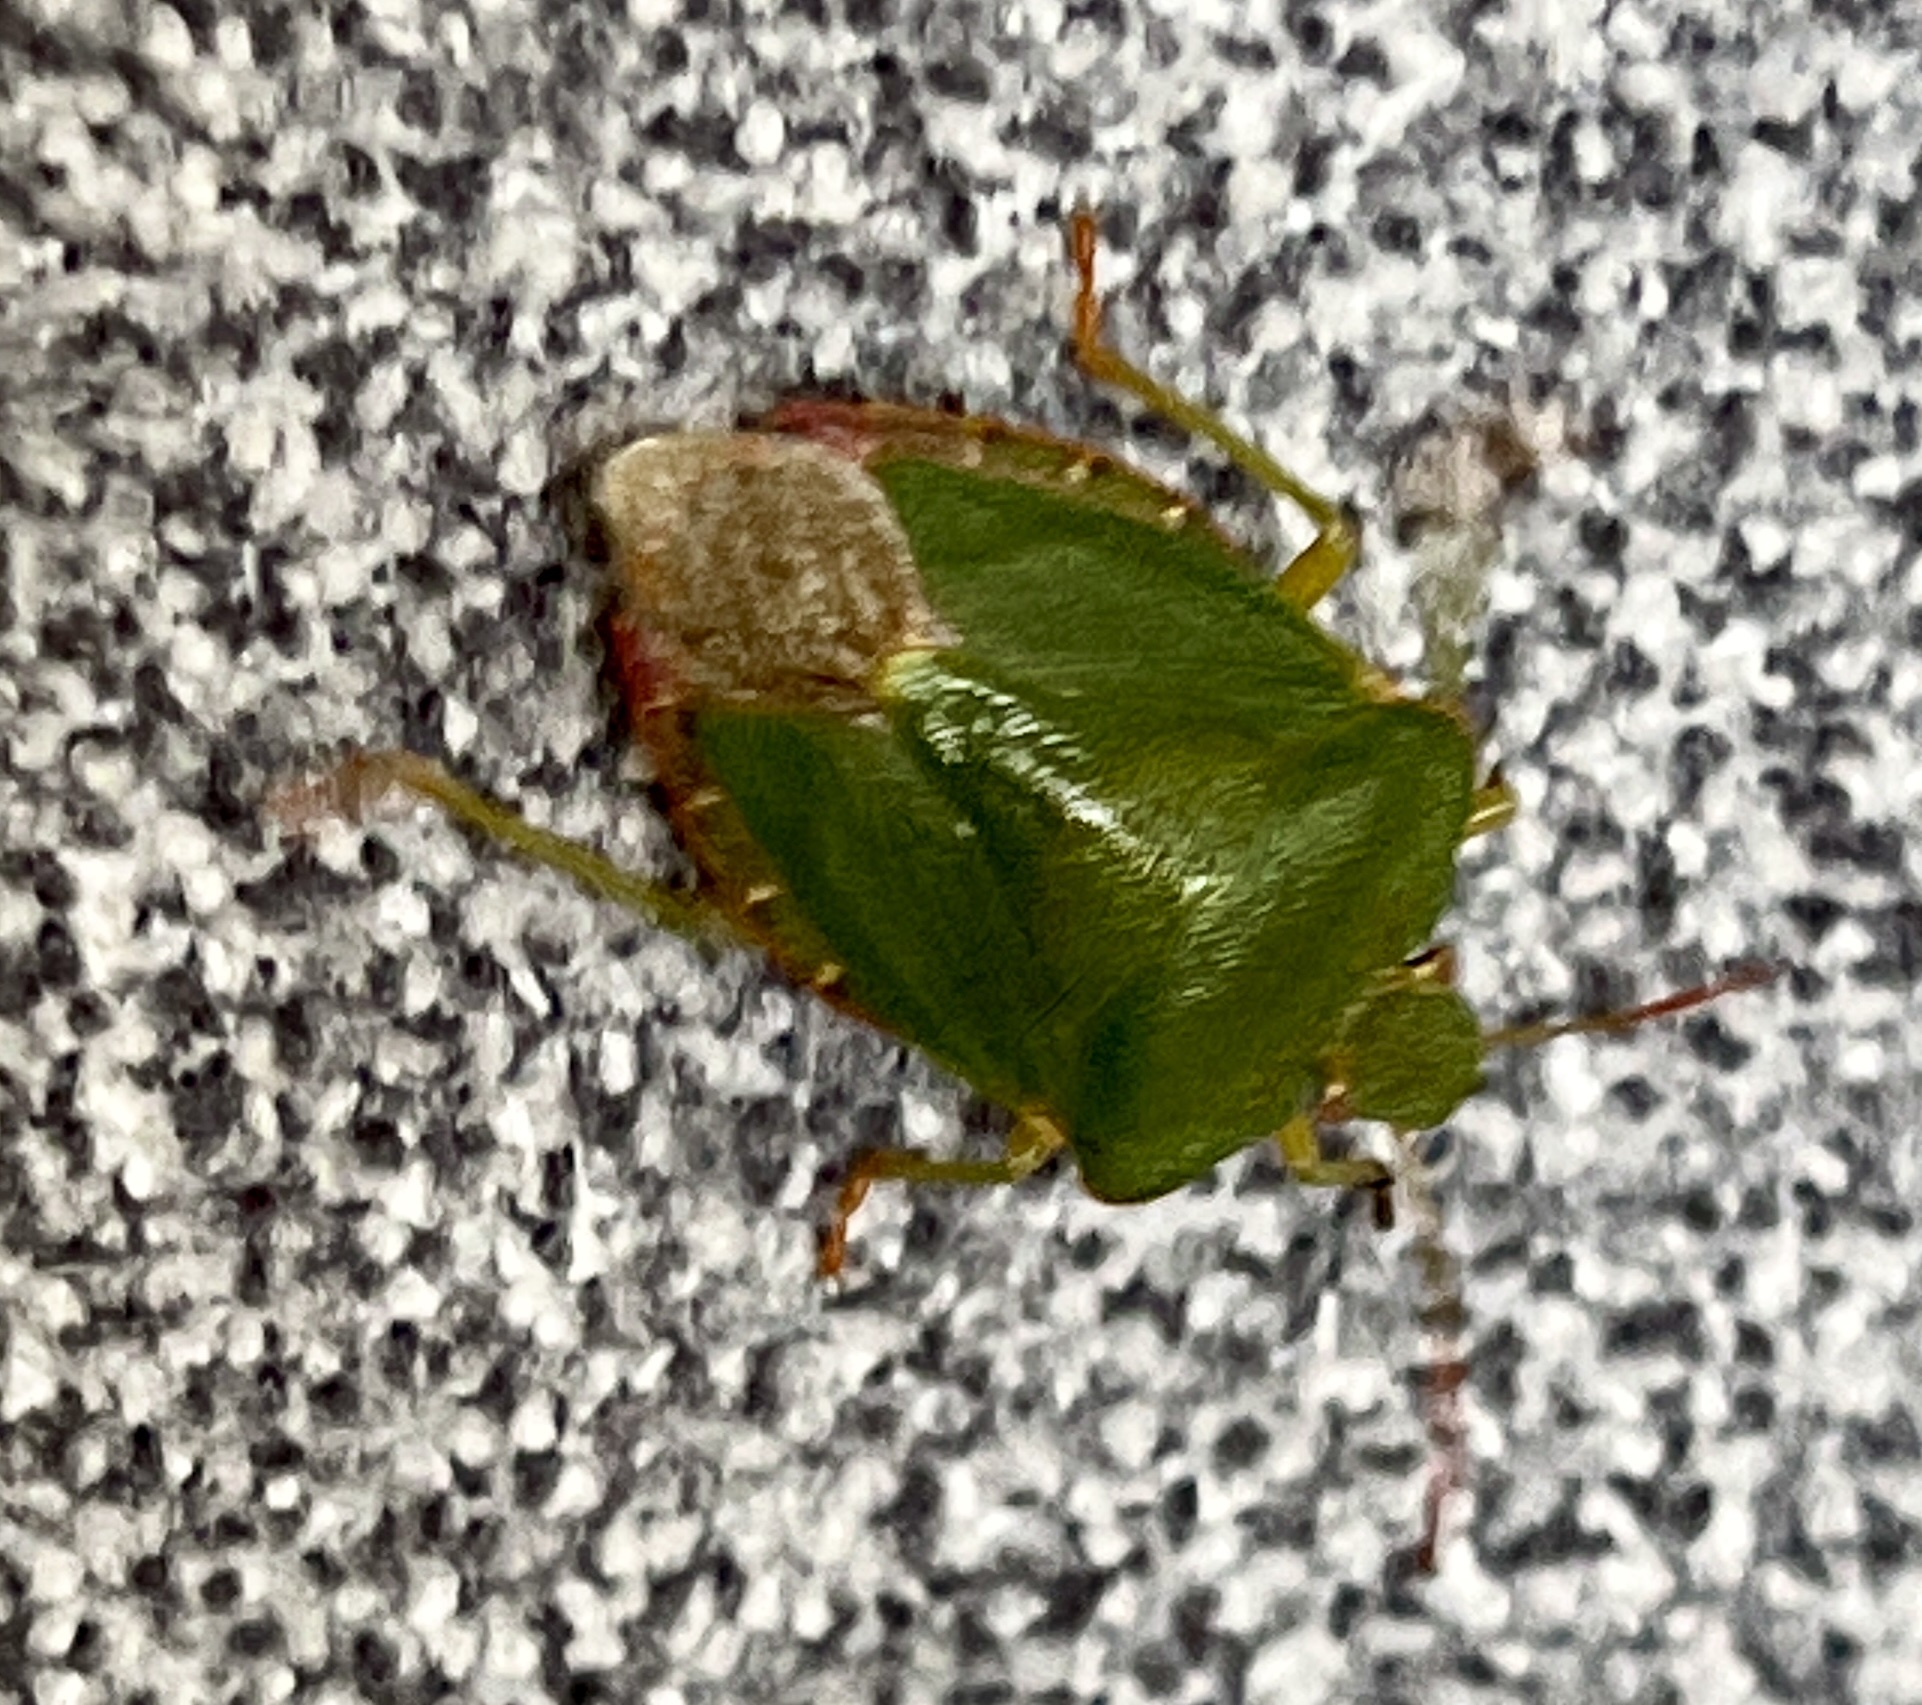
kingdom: Animalia
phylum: Arthropoda
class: Insecta
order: Hemiptera
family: Pentatomidae
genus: Palomena
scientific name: Palomena prasina
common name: Green shieldbug
